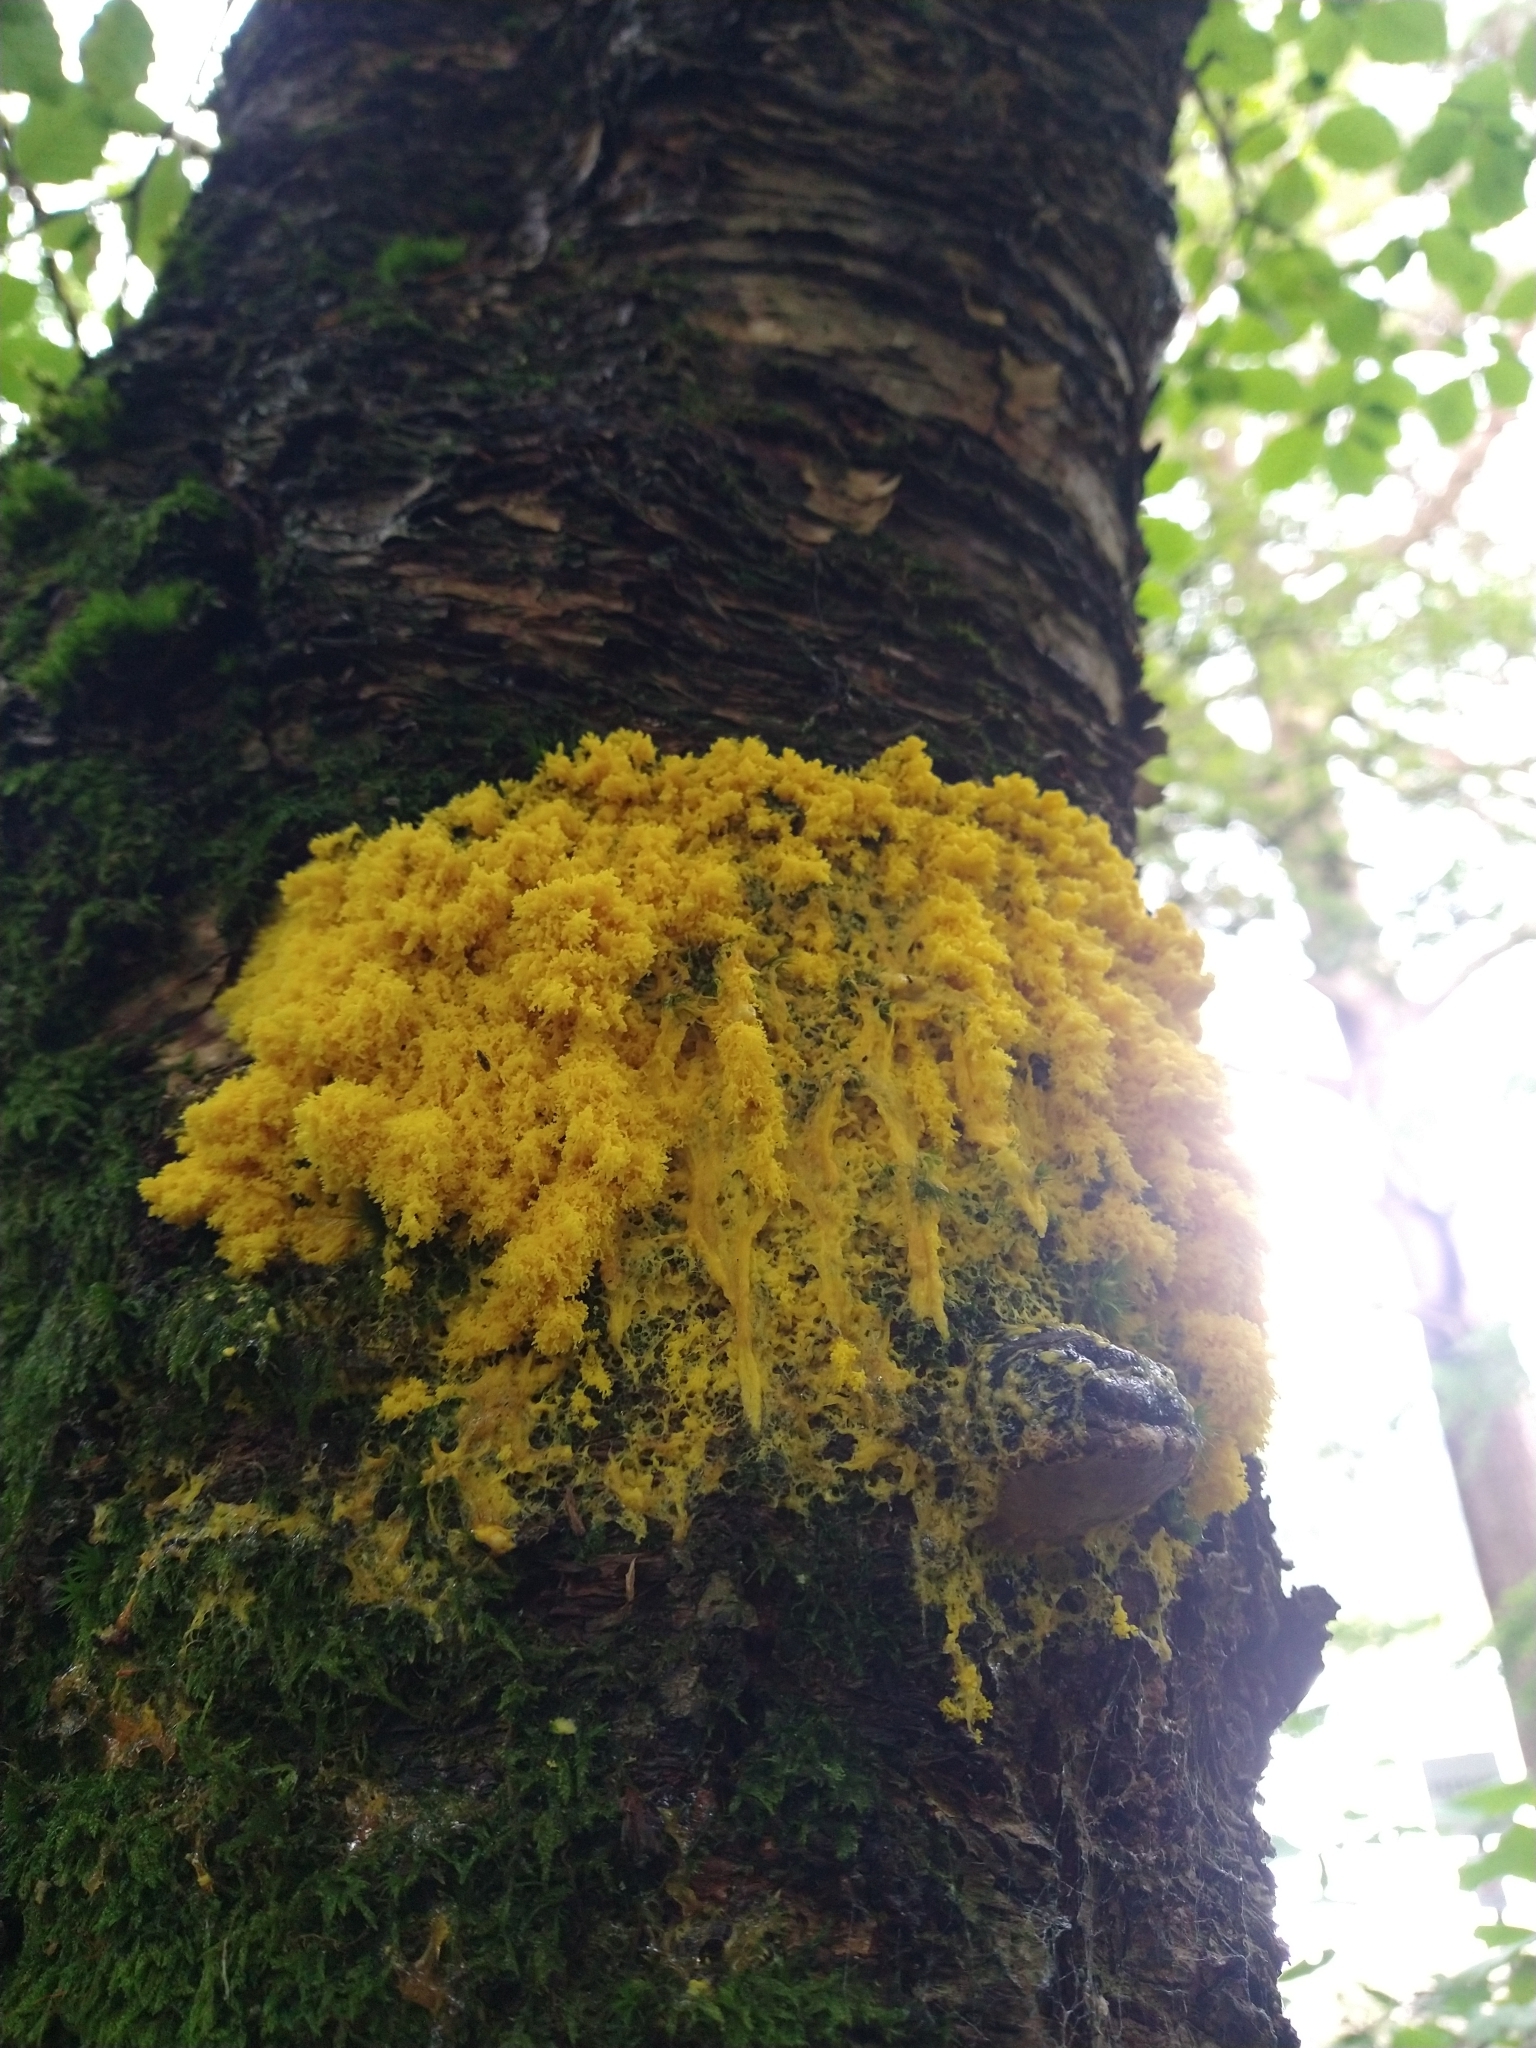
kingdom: Protozoa
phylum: Mycetozoa
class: Myxomycetes
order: Physarales
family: Physaraceae
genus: Fuligo
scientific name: Fuligo septica
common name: Dog vomit slime mold
